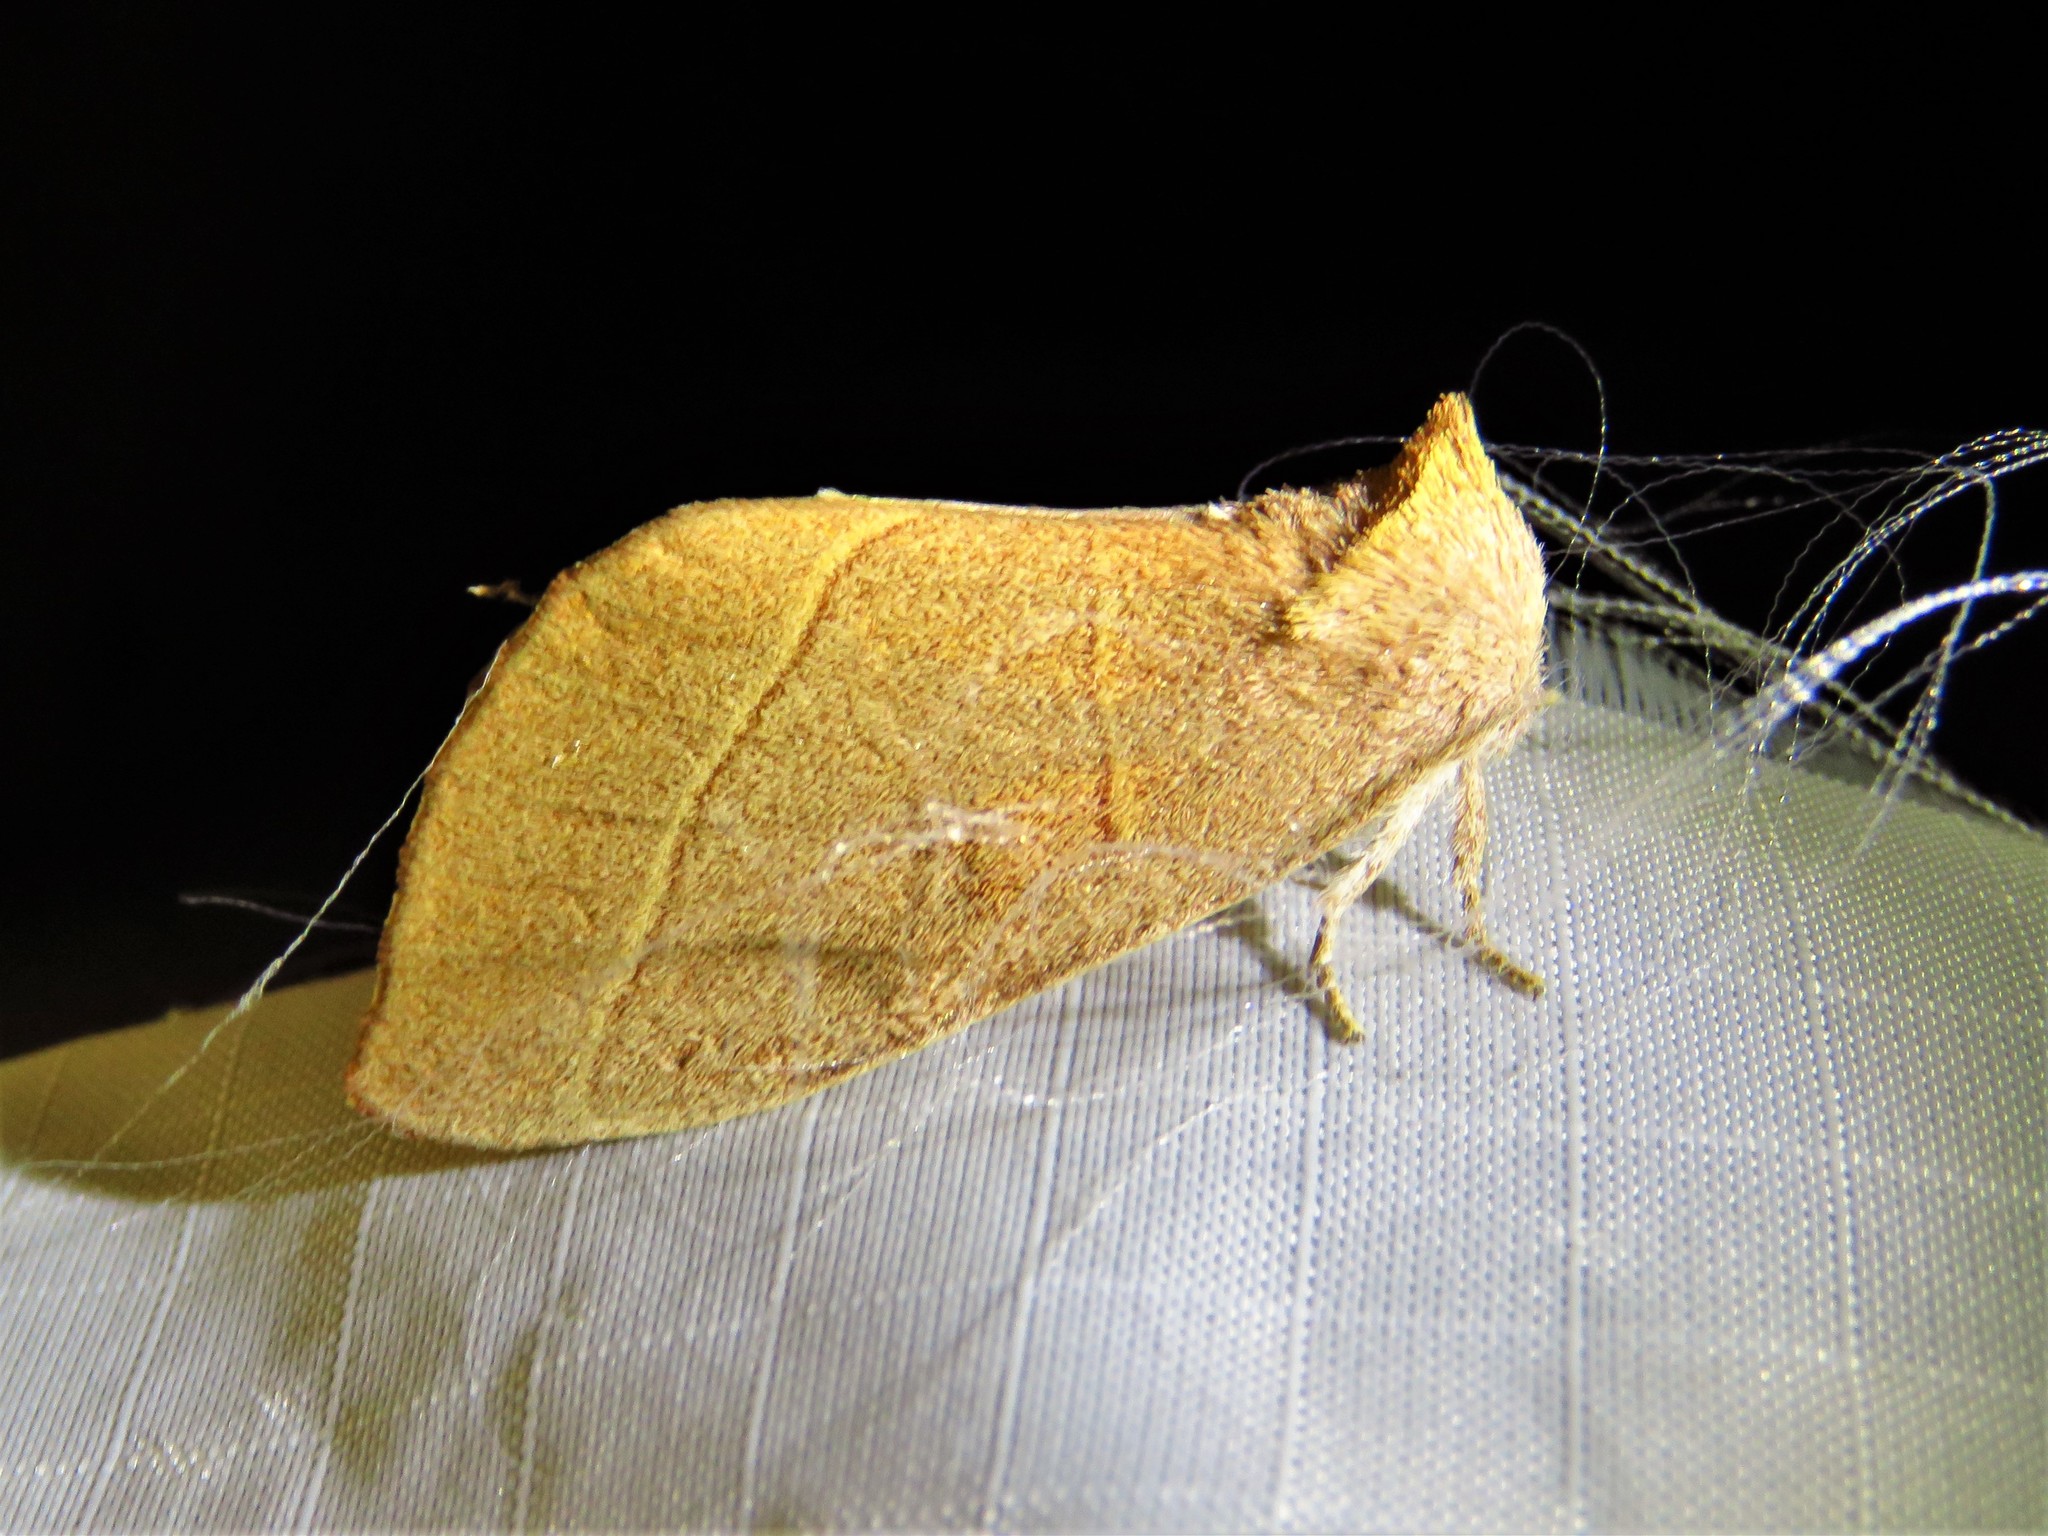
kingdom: Animalia
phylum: Arthropoda
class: Insecta
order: Lepidoptera
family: Notodontidae
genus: Nadata
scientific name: Nadata gibbosa
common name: White-dotted prominent
